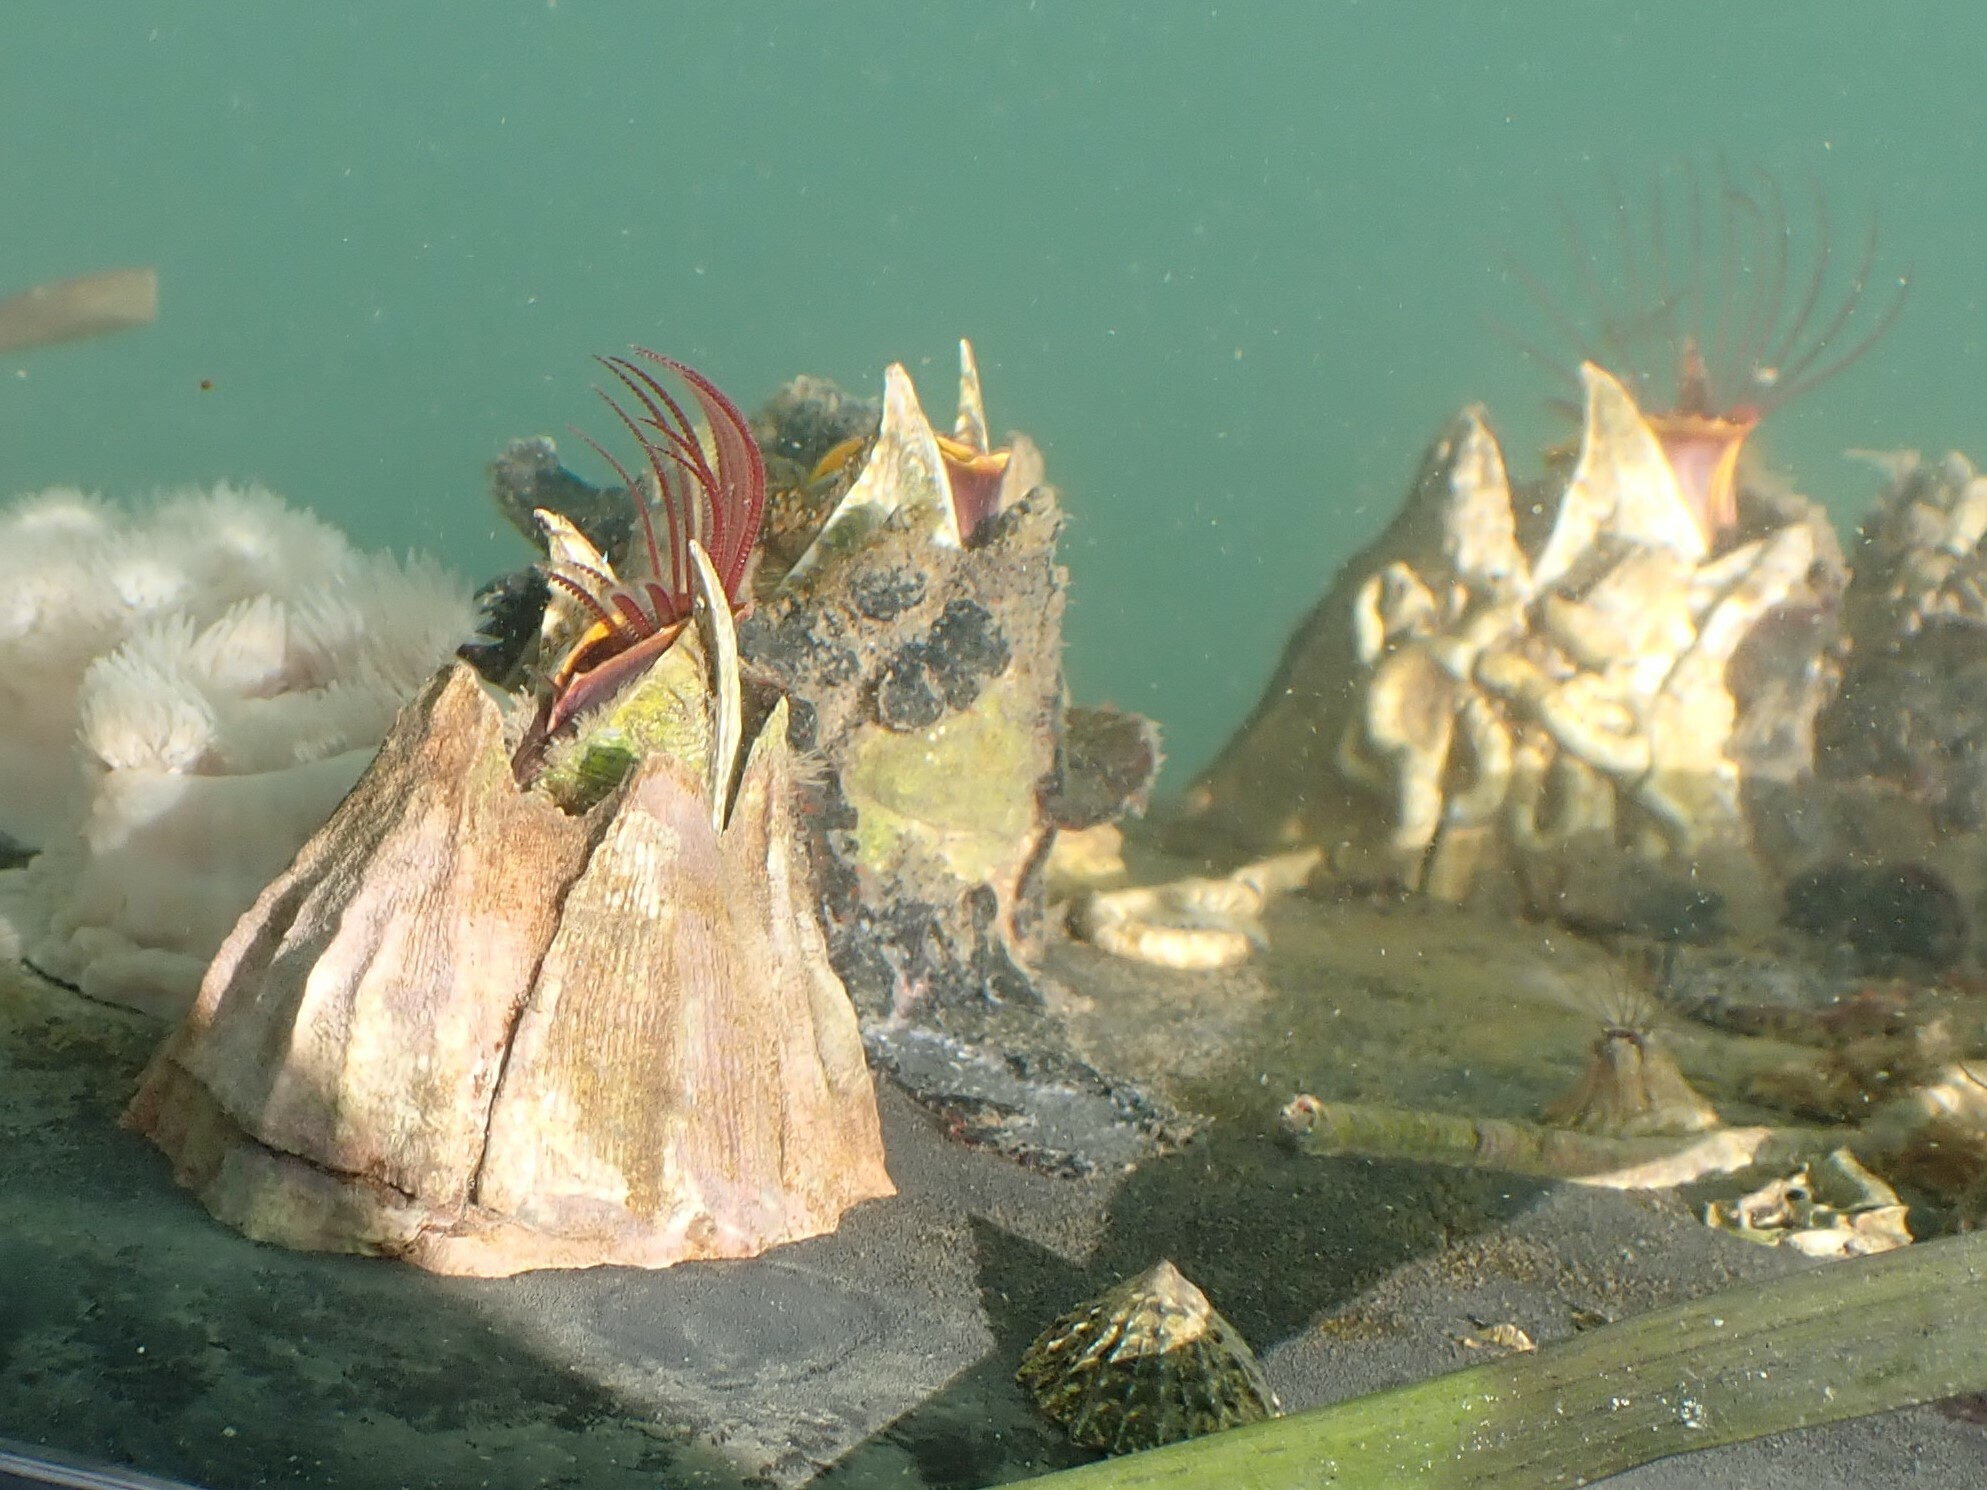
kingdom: Animalia
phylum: Arthropoda
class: Maxillopoda
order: Sessilia
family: Balanidae
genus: Balanus
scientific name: Balanus nubilus
